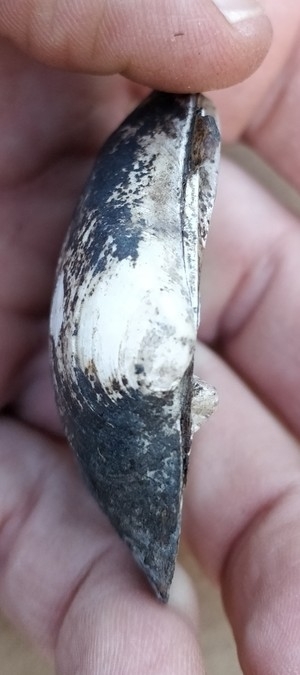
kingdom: Animalia
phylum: Mollusca
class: Bivalvia
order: Unionida
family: Unionidae
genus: Fusconaia
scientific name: Fusconaia flava
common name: Wabash pigtoe
